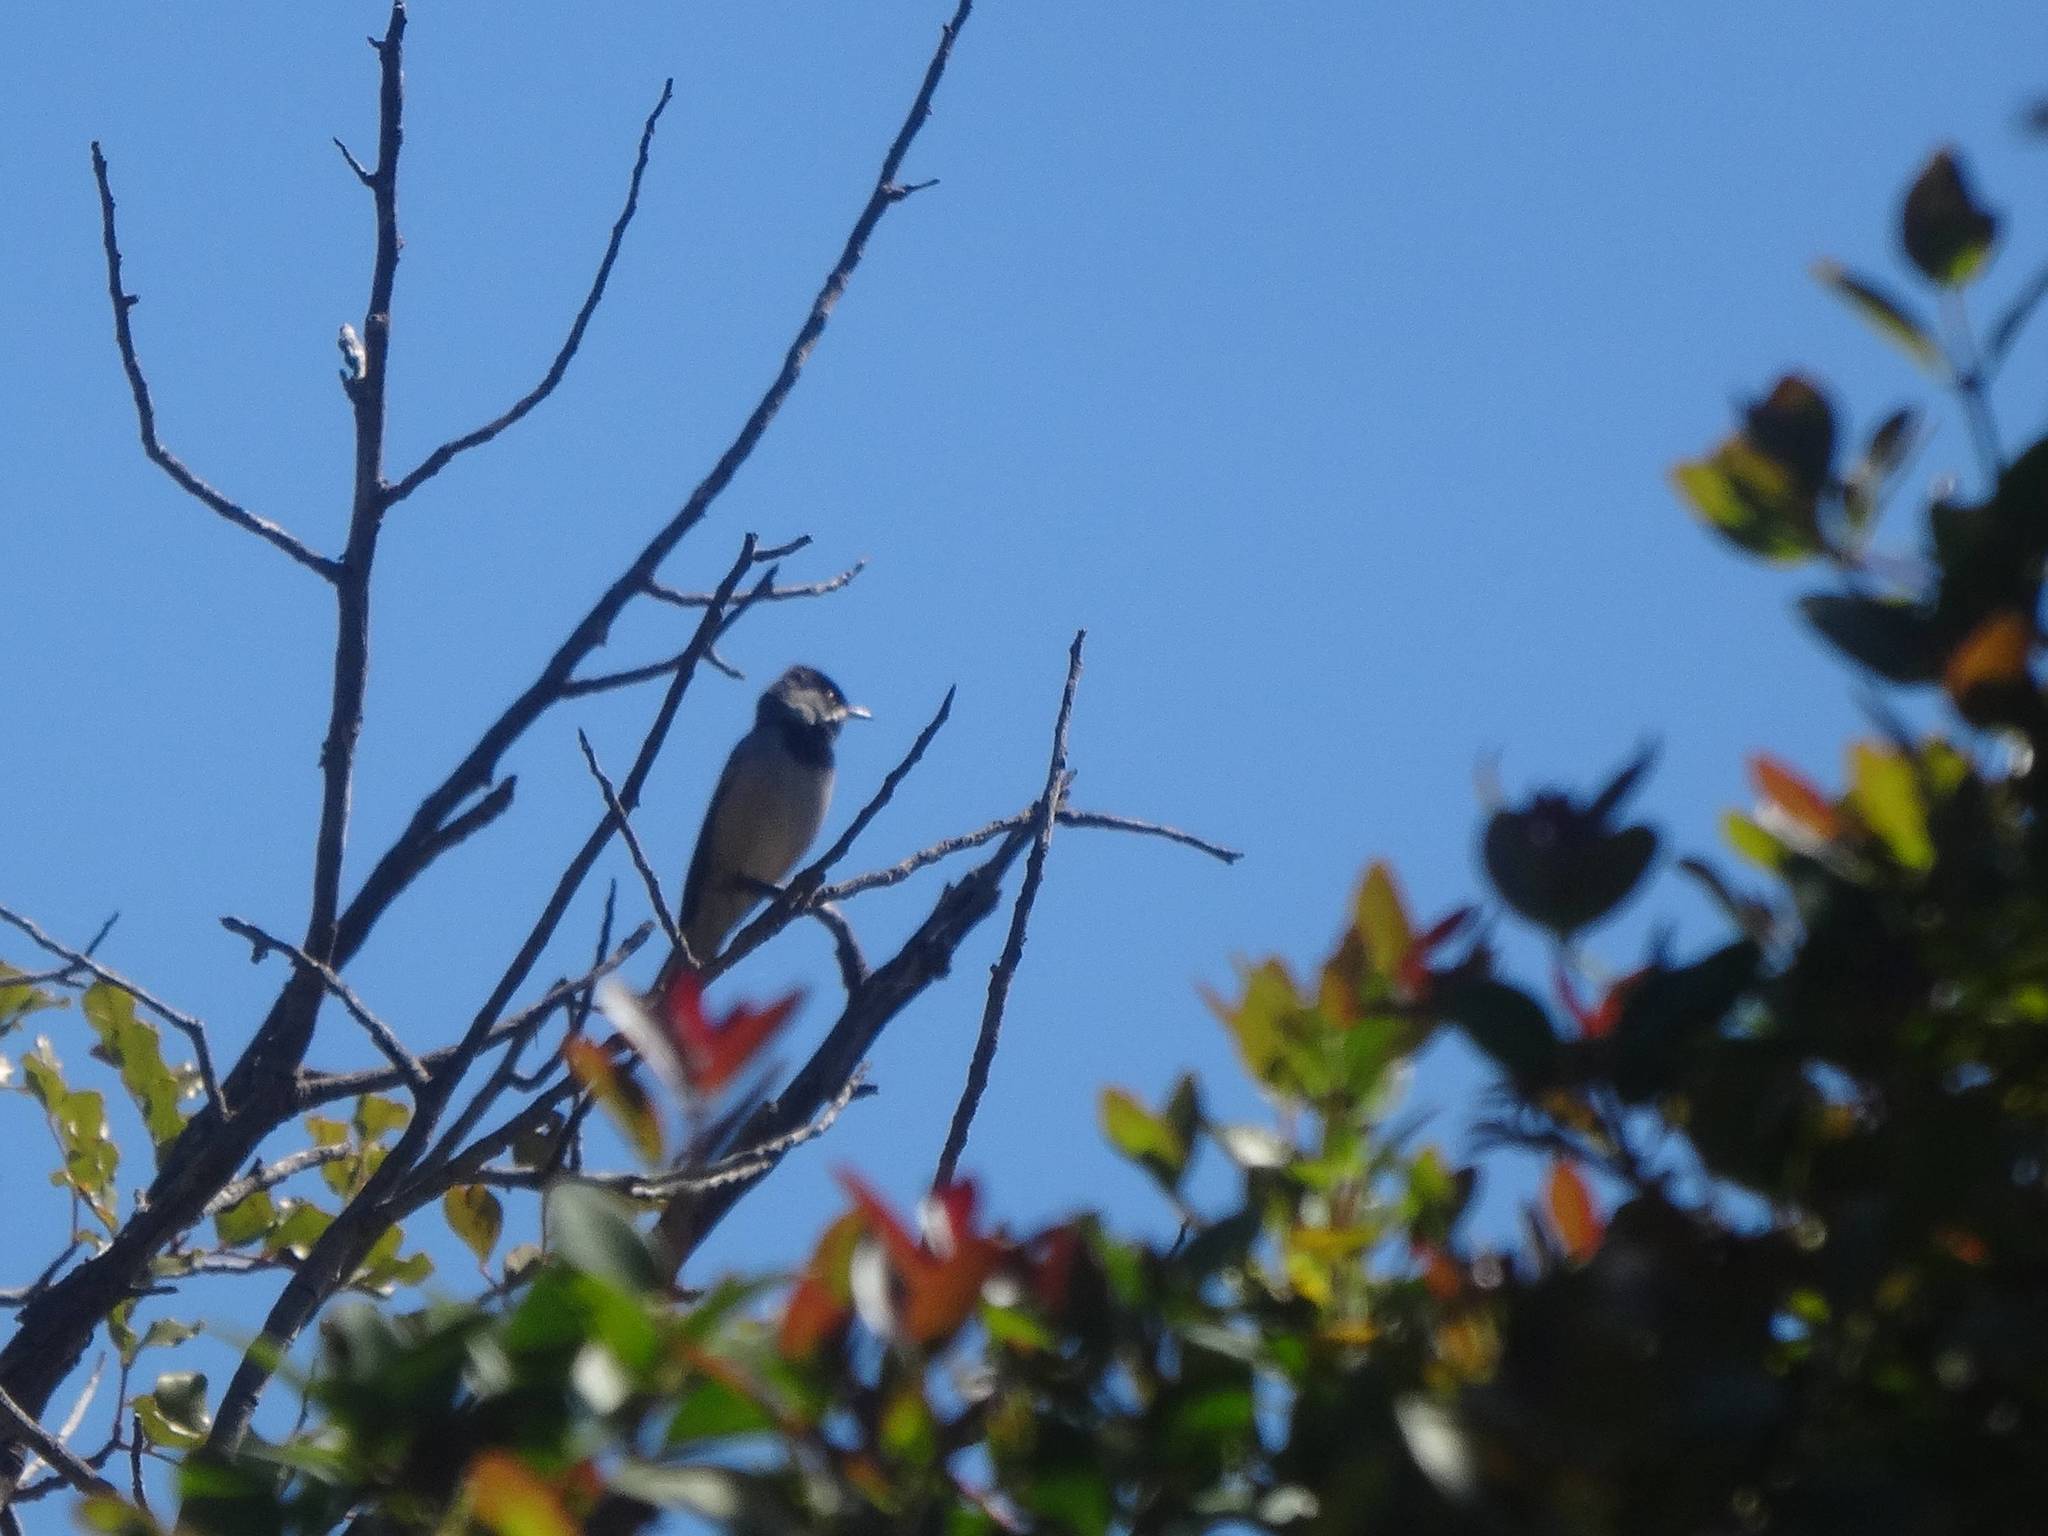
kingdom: Animalia
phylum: Chordata
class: Aves
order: Passeriformes
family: Sylviidae
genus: Sylvia
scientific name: Sylvia ruppeli
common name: Rüppell's warbler
